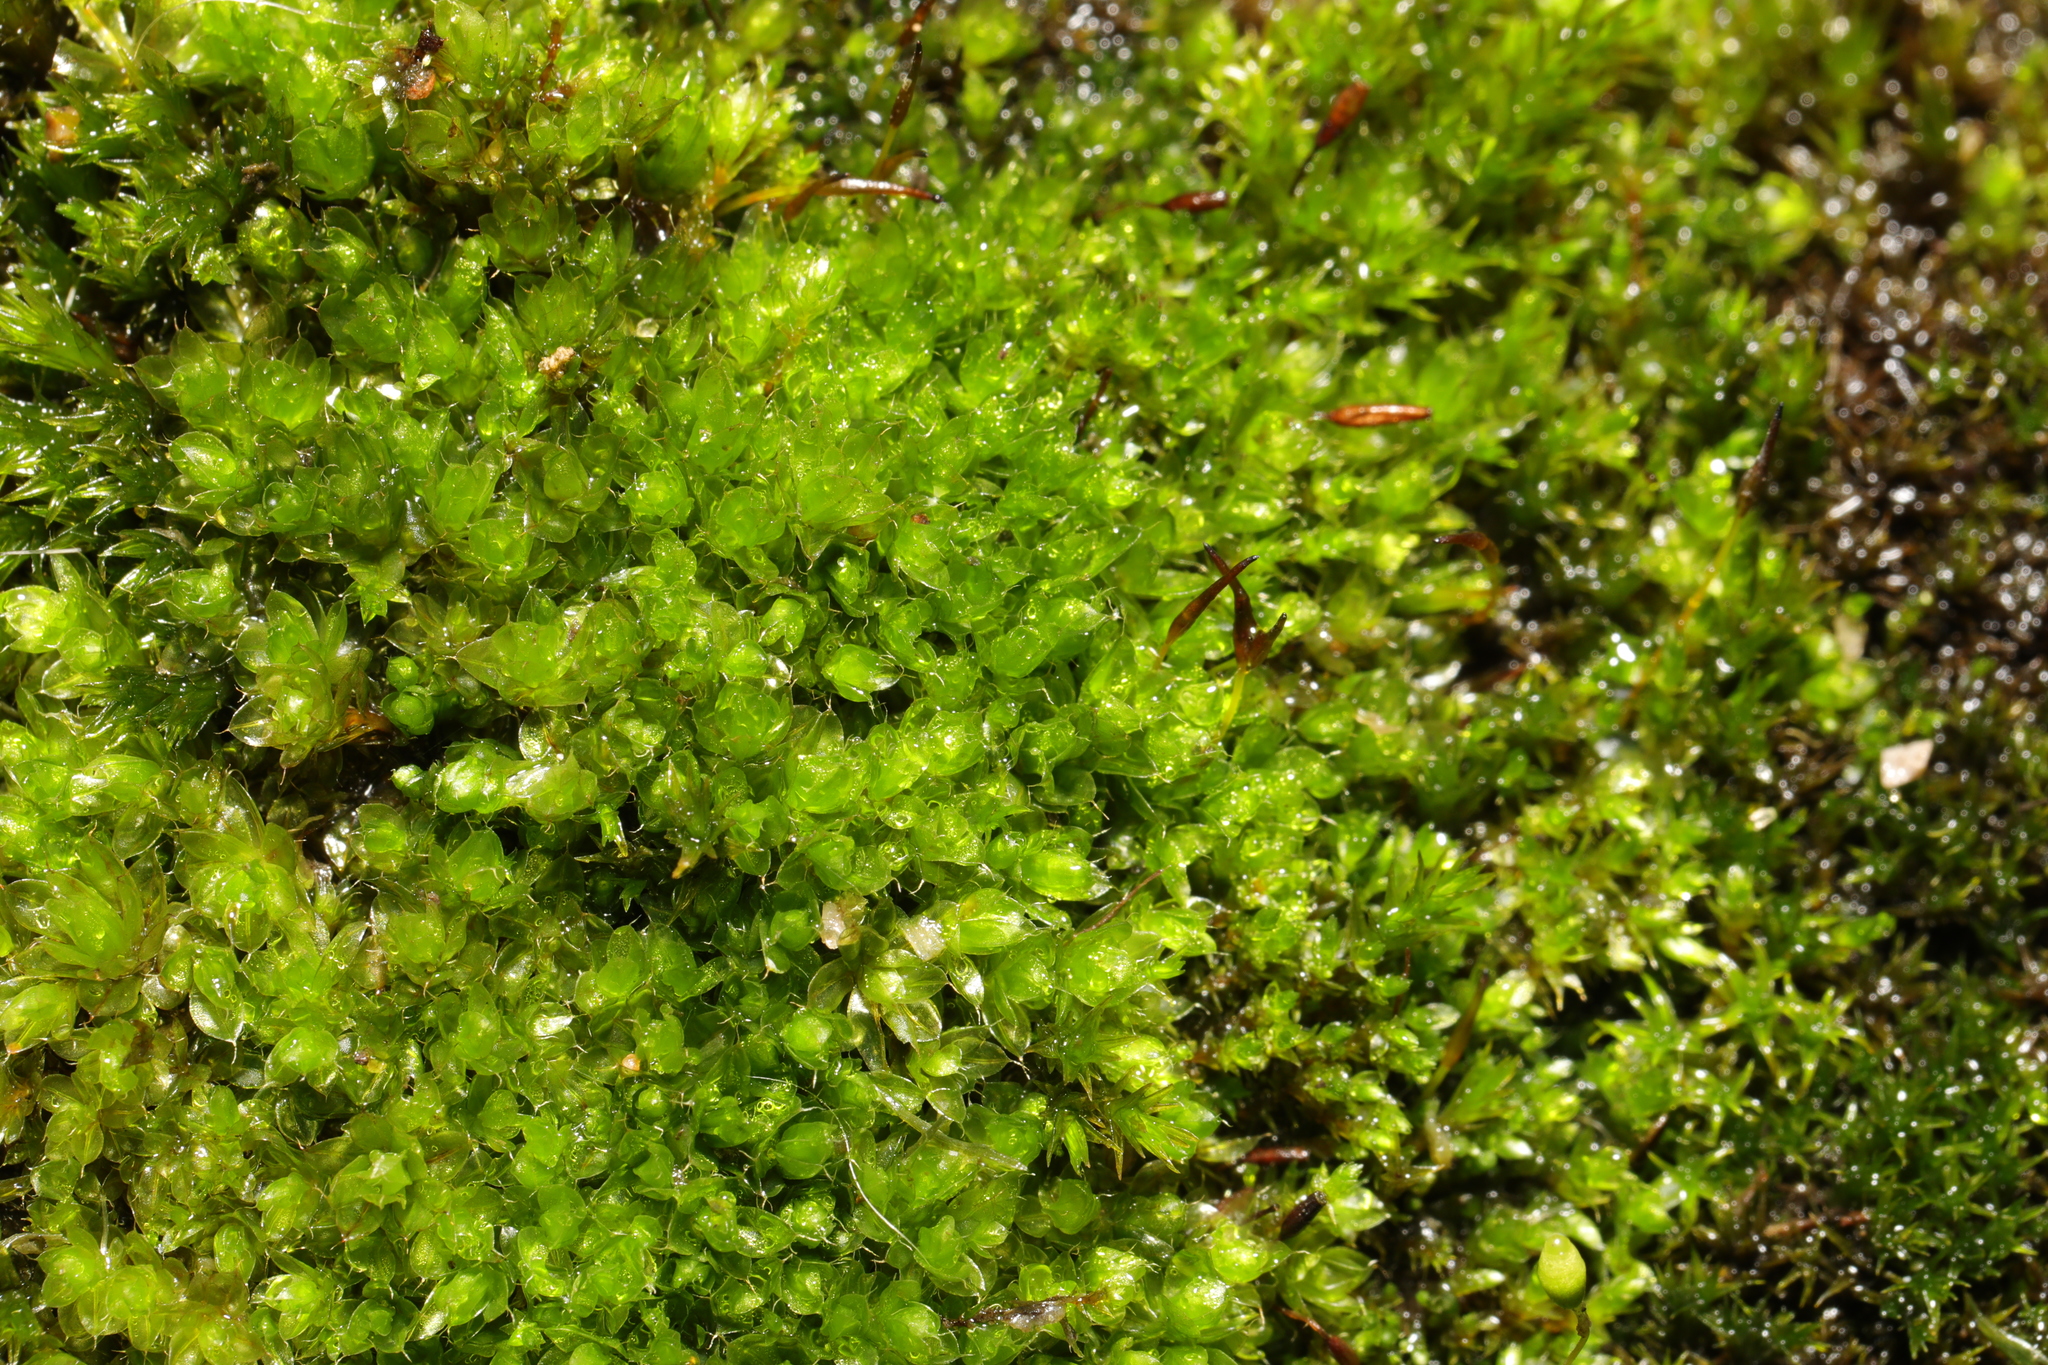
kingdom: Plantae
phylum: Bryophyta
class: Bryopsida
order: Bryales
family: Bryaceae
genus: Rosulabryum
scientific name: Rosulabryum capillare
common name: Capillary thread-moss
